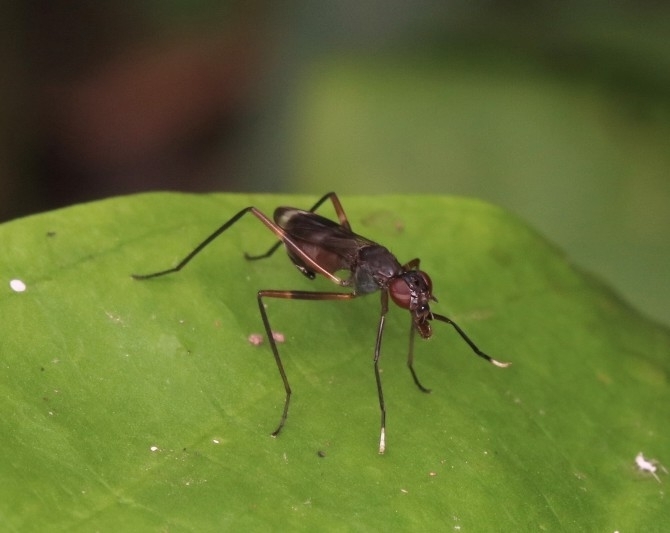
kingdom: Animalia
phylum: Arthropoda
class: Insecta
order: Diptera
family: Micropezidae
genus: Taeniaptera
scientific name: Taeniaptera trivittata
